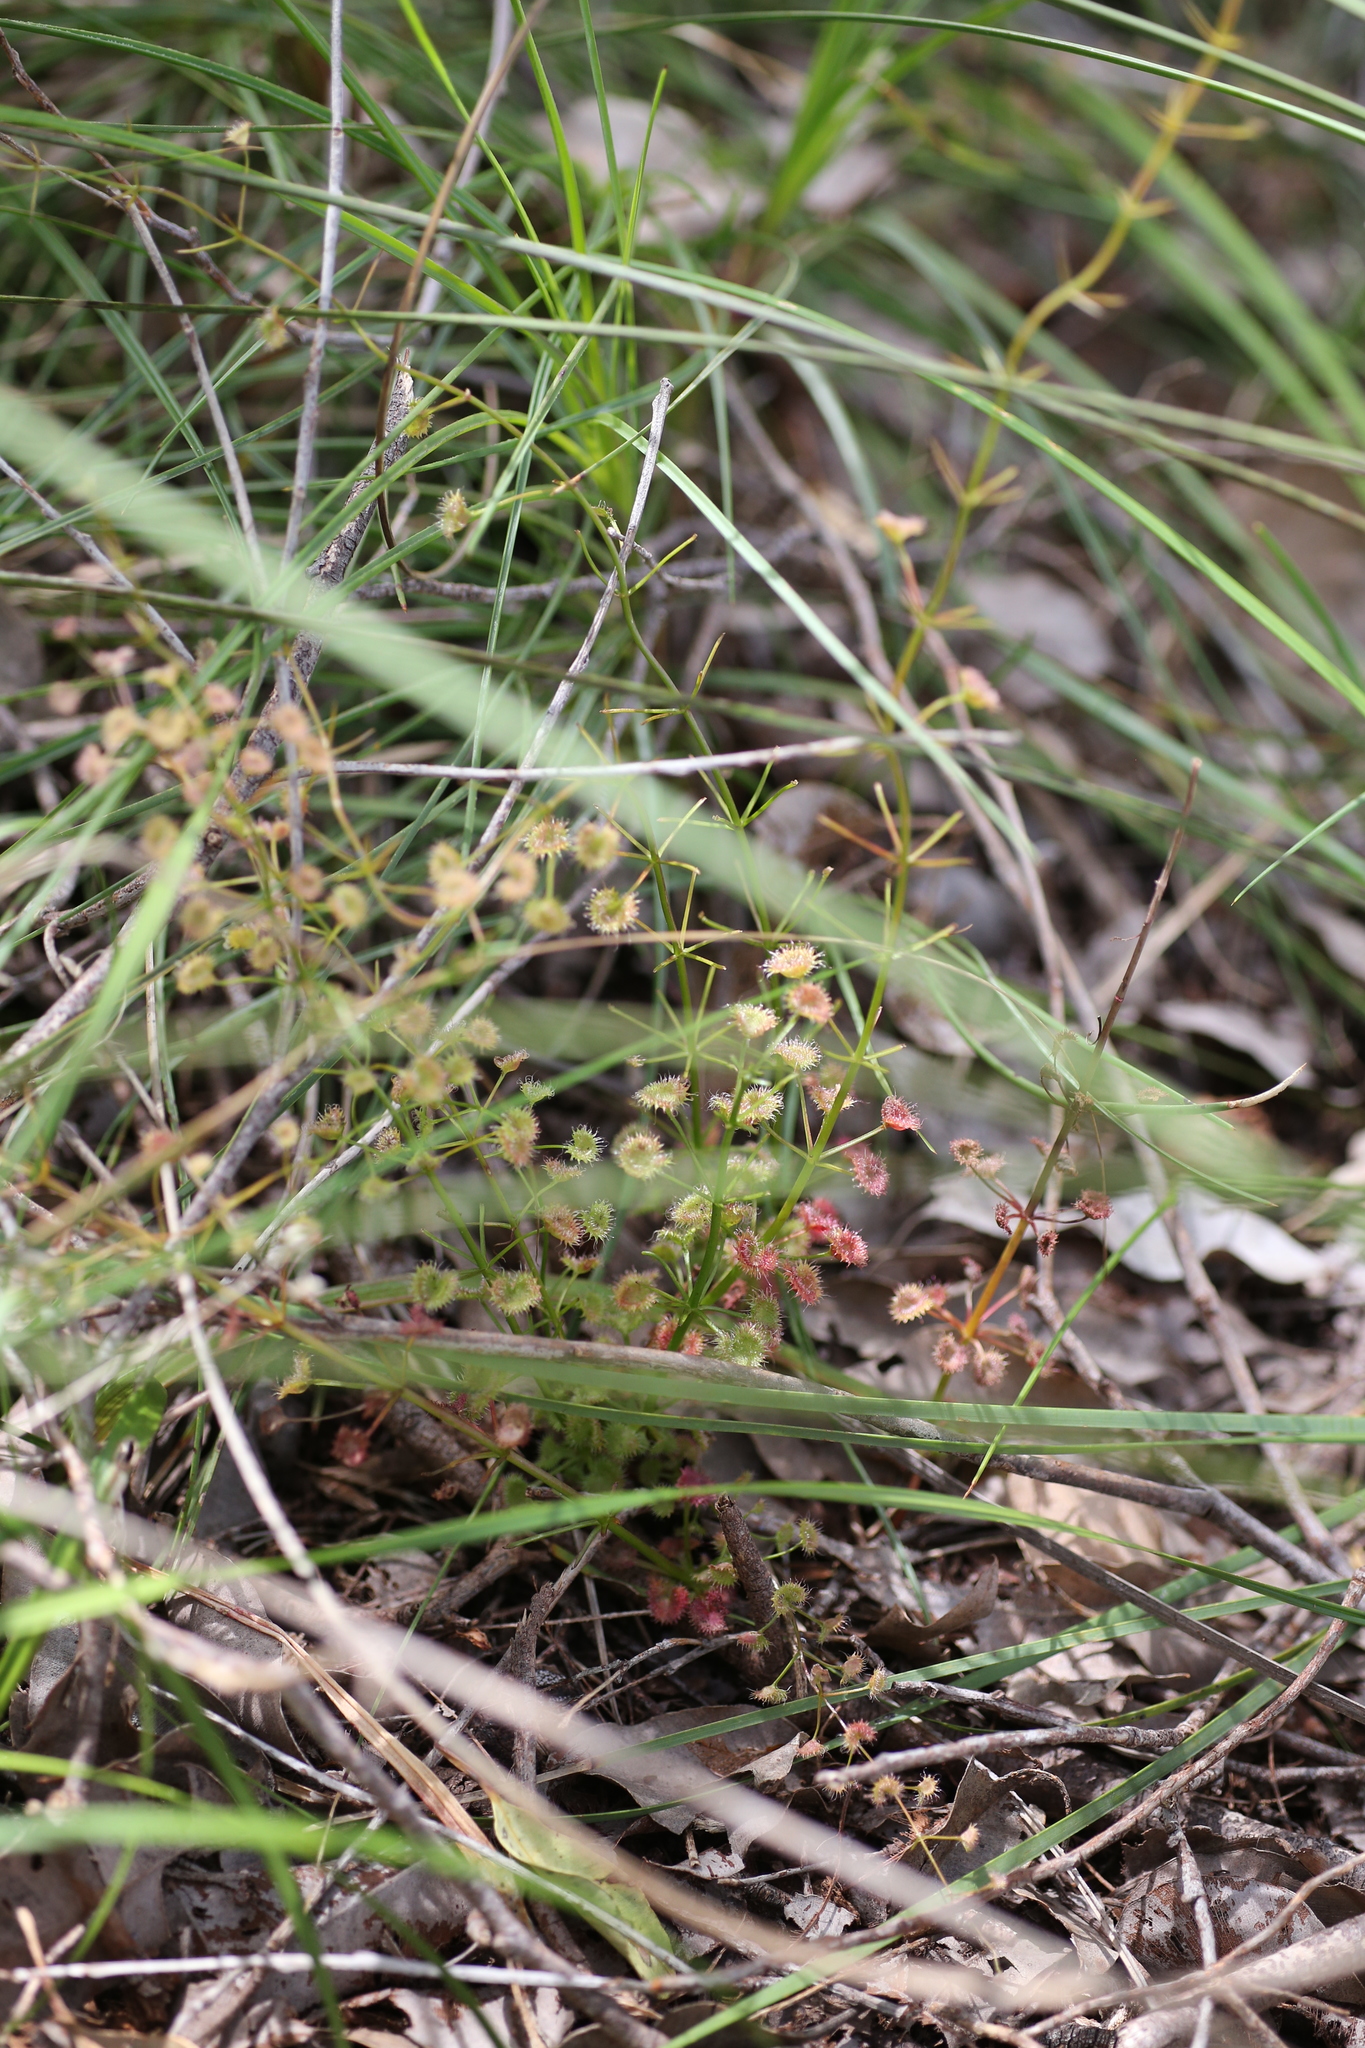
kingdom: Plantae
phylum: Tracheophyta
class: Magnoliopsida
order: Caryophyllales
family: Droseraceae
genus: Drosera
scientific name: Drosera stolonifera
